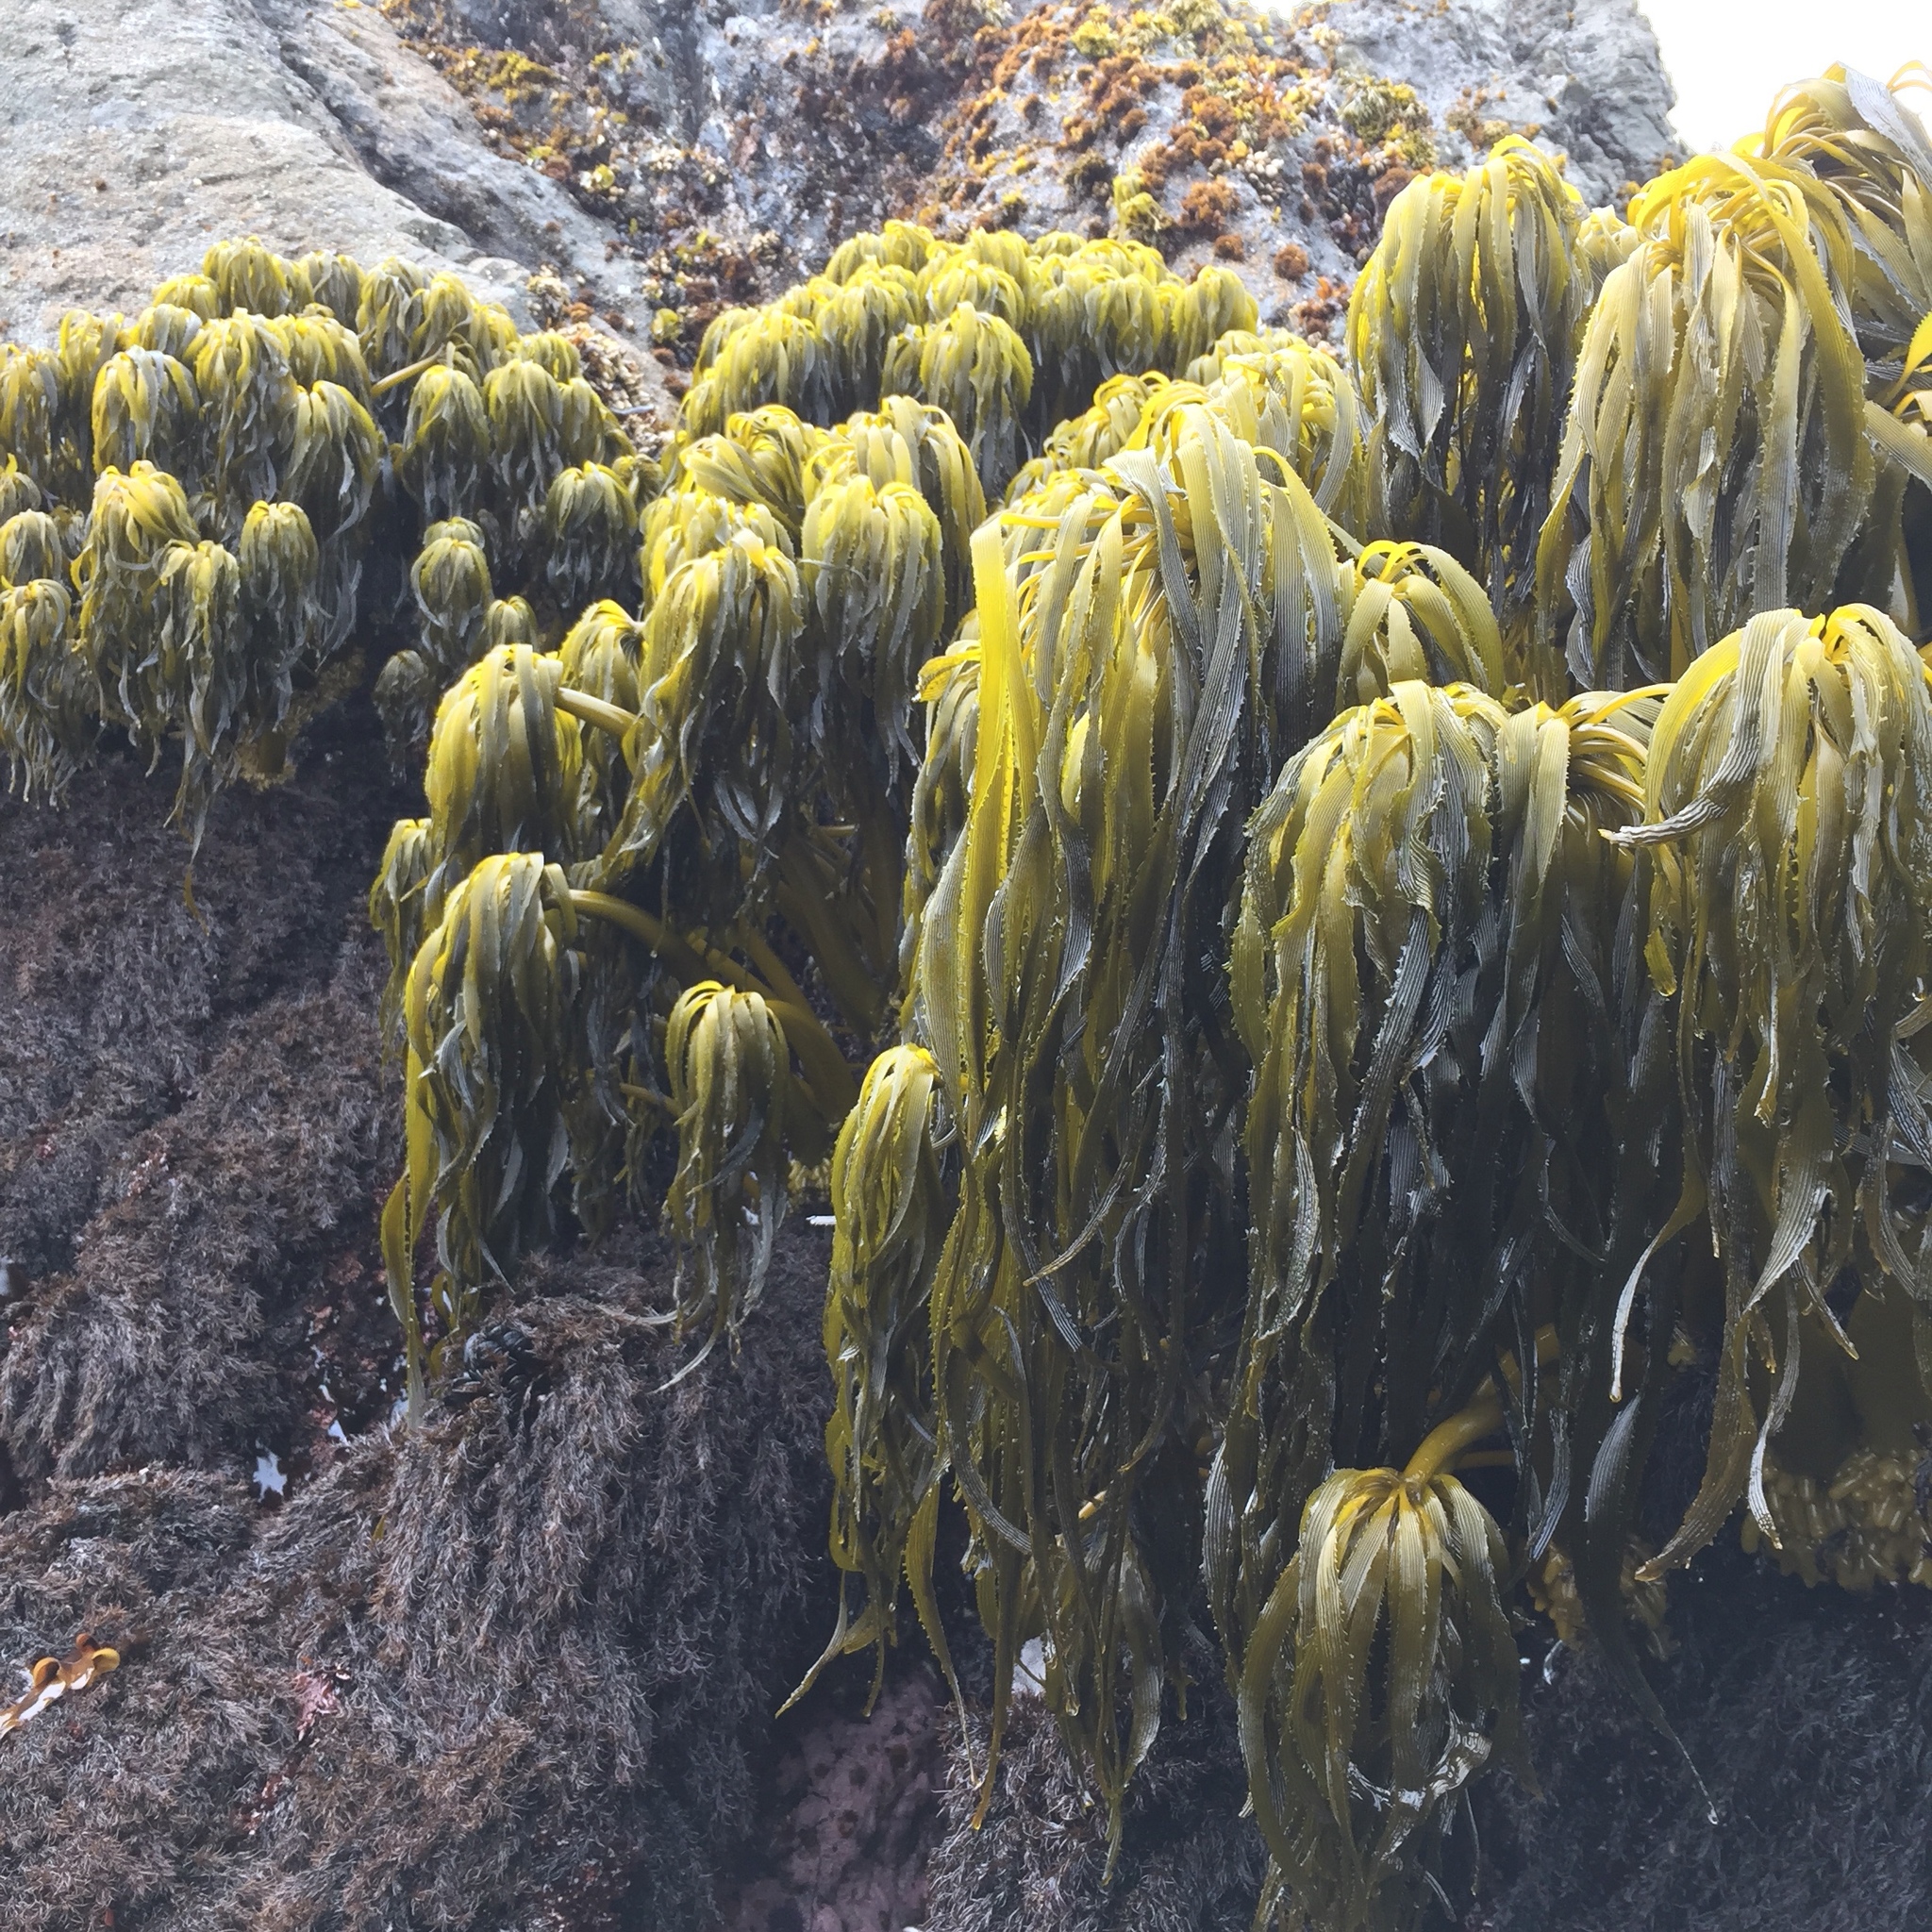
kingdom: Chromista
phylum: Ochrophyta
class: Phaeophyceae
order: Laminariales
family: Laminariaceae
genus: Postelsia
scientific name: Postelsia palmiformis
